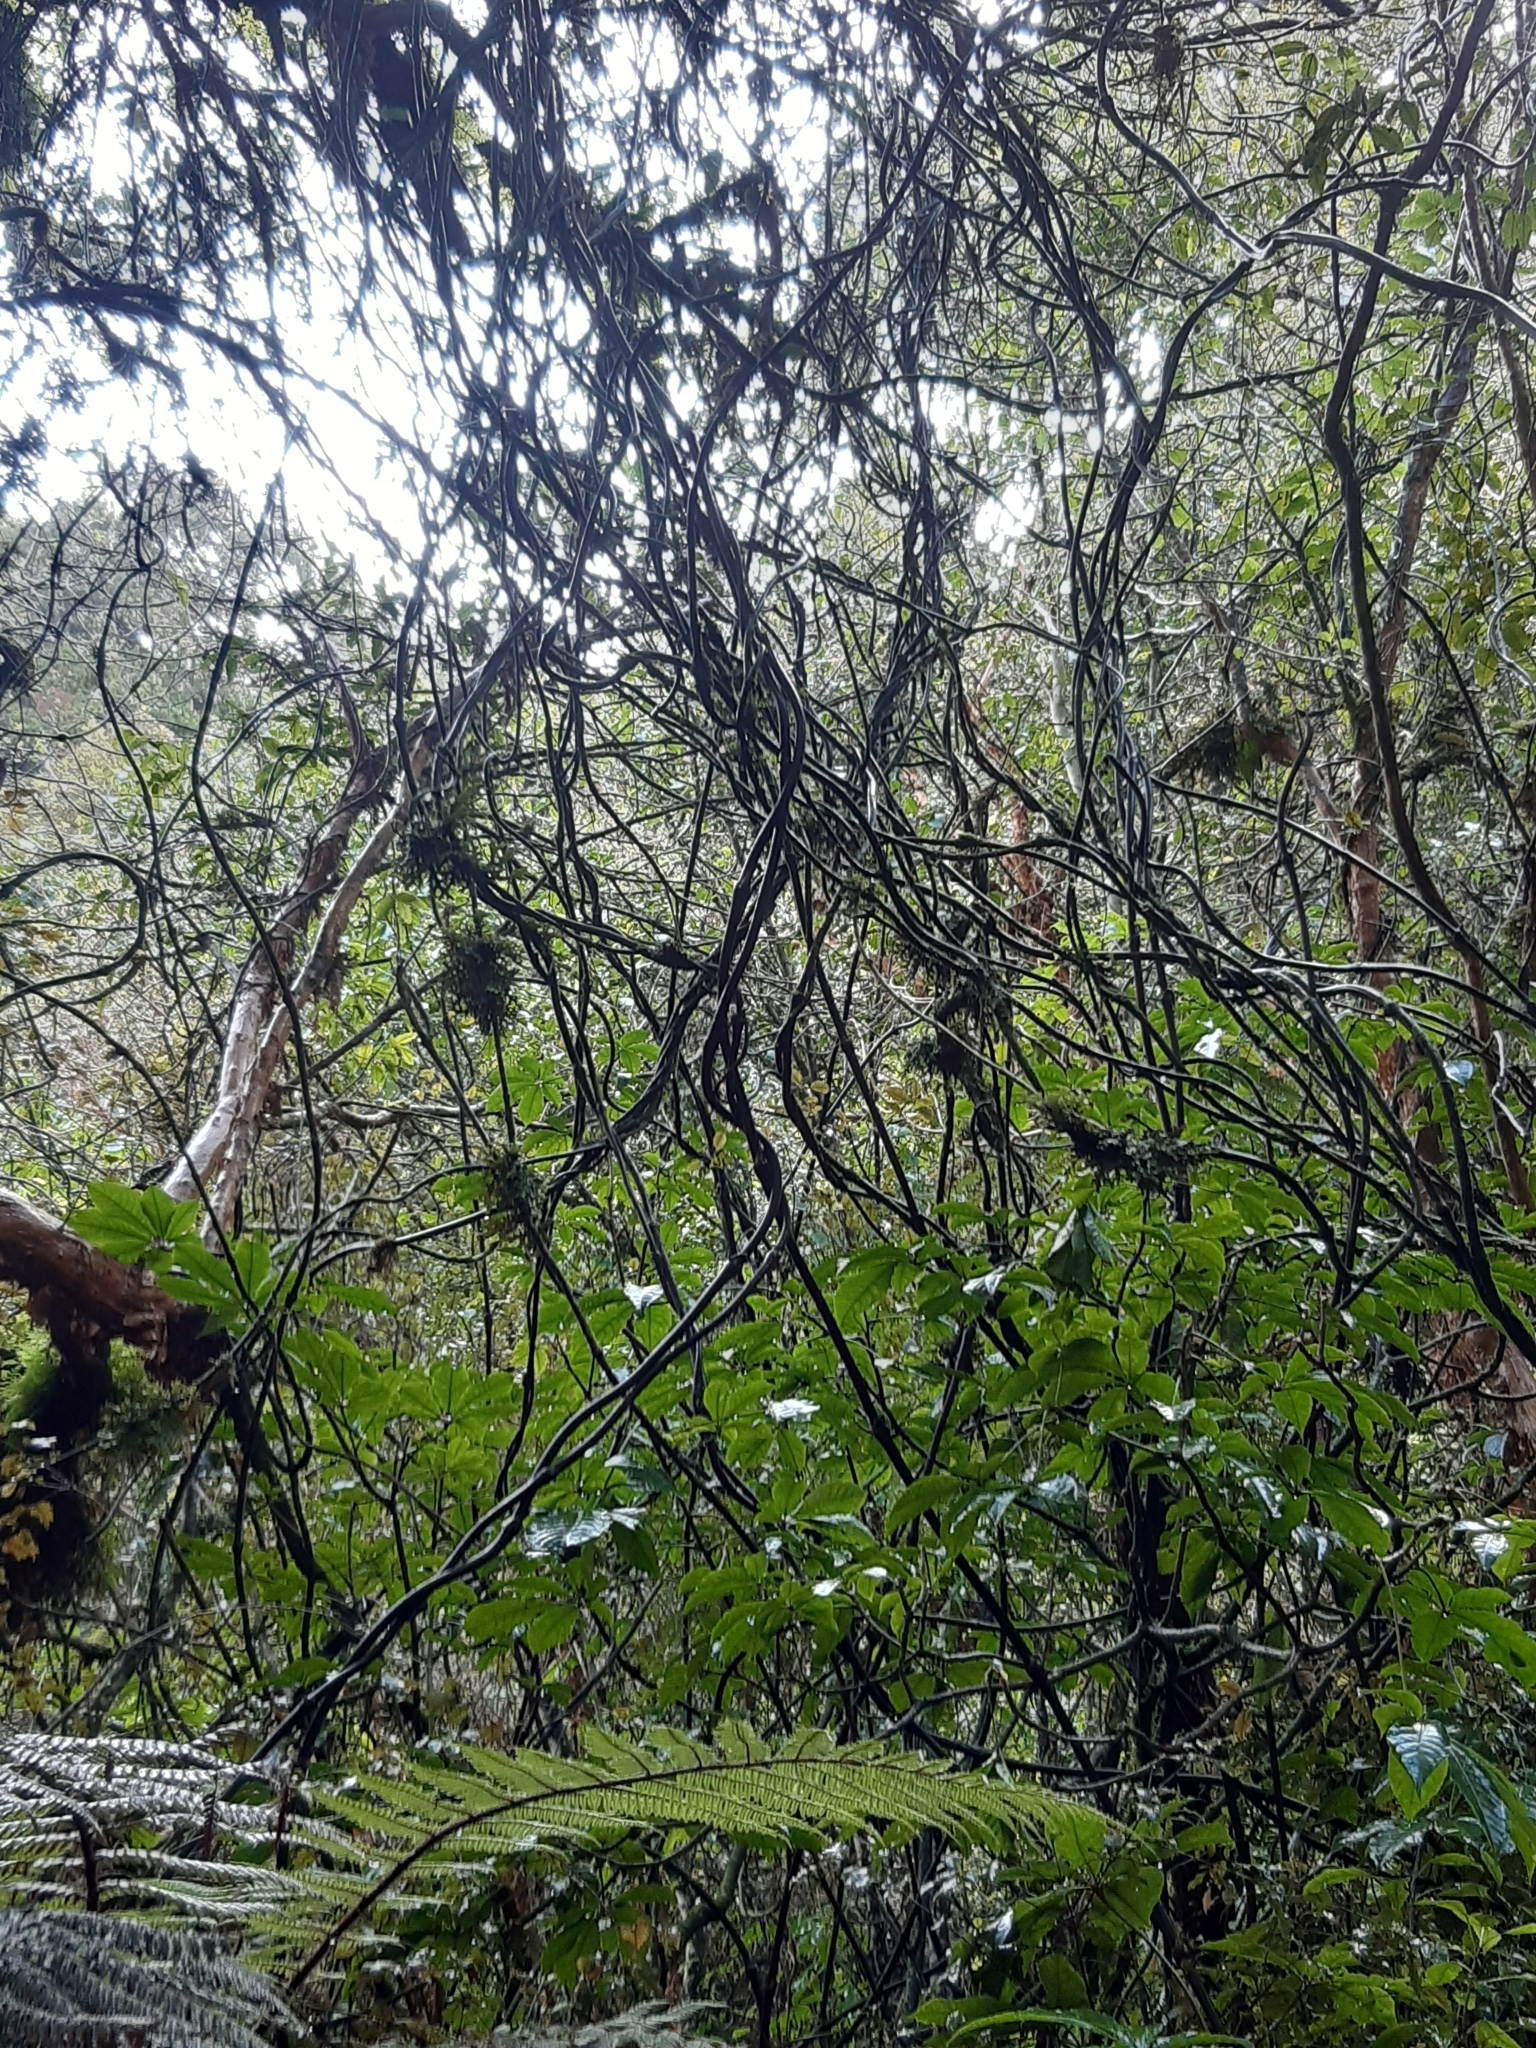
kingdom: Plantae
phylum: Tracheophyta
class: Liliopsida
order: Liliales
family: Ripogonaceae
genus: Ripogonum
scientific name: Ripogonum scandens
